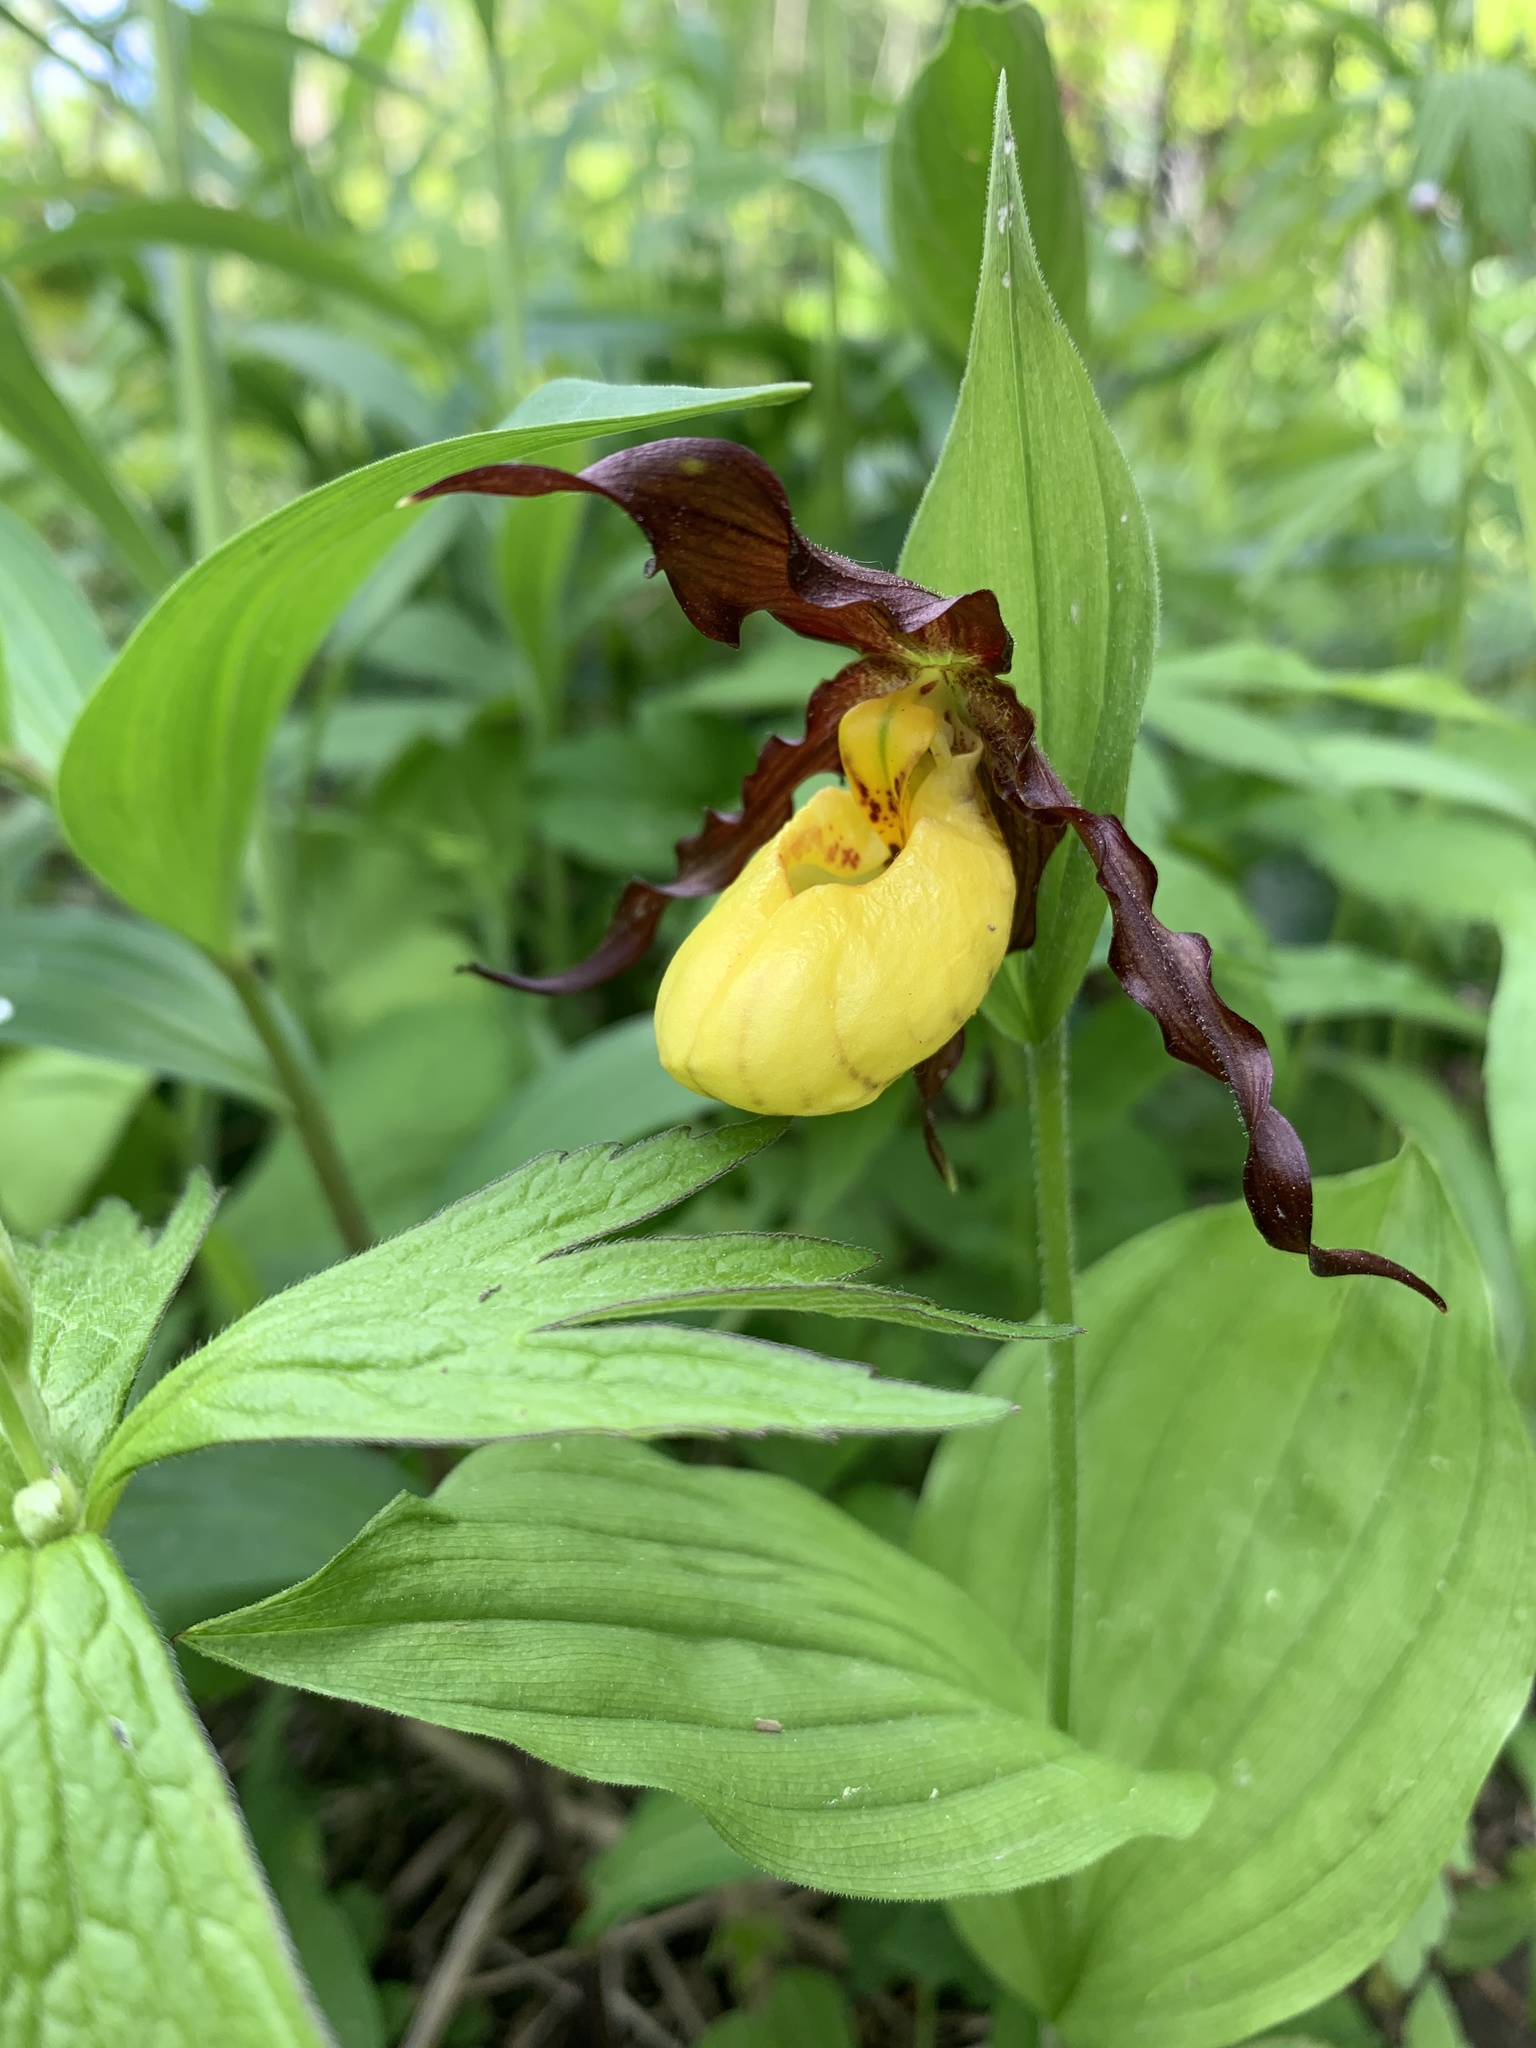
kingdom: Plantae
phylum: Tracheophyta
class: Liliopsida
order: Asparagales
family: Orchidaceae
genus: Cypripedium
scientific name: Cypripedium parviflorum
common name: American yellow lady's-slipper
